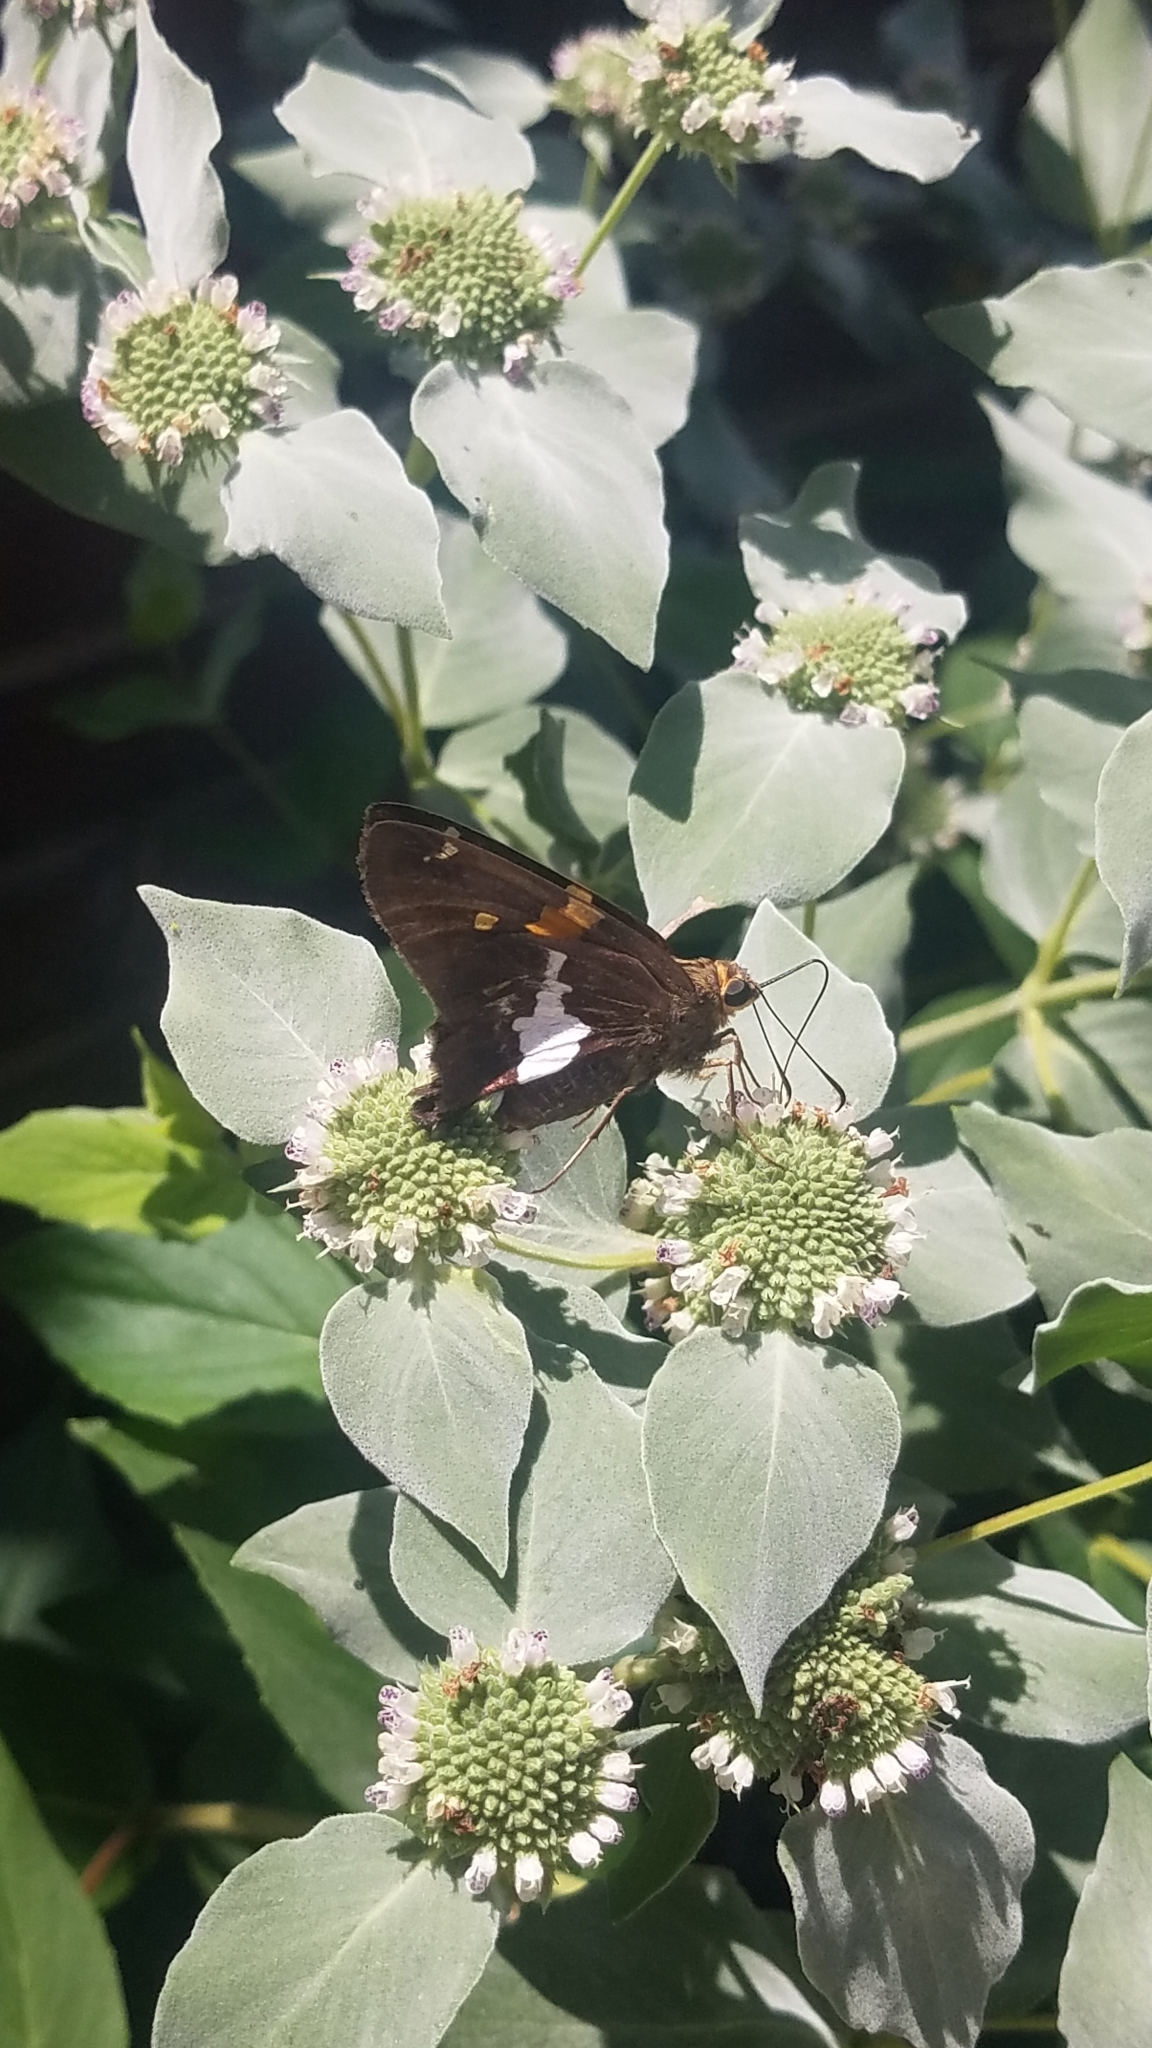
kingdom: Animalia
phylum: Arthropoda
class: Insecta
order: Lepidoptera
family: Hesperiidae
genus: Epargyreus
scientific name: Epargyreus clarus
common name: Silver-spotted skipper
